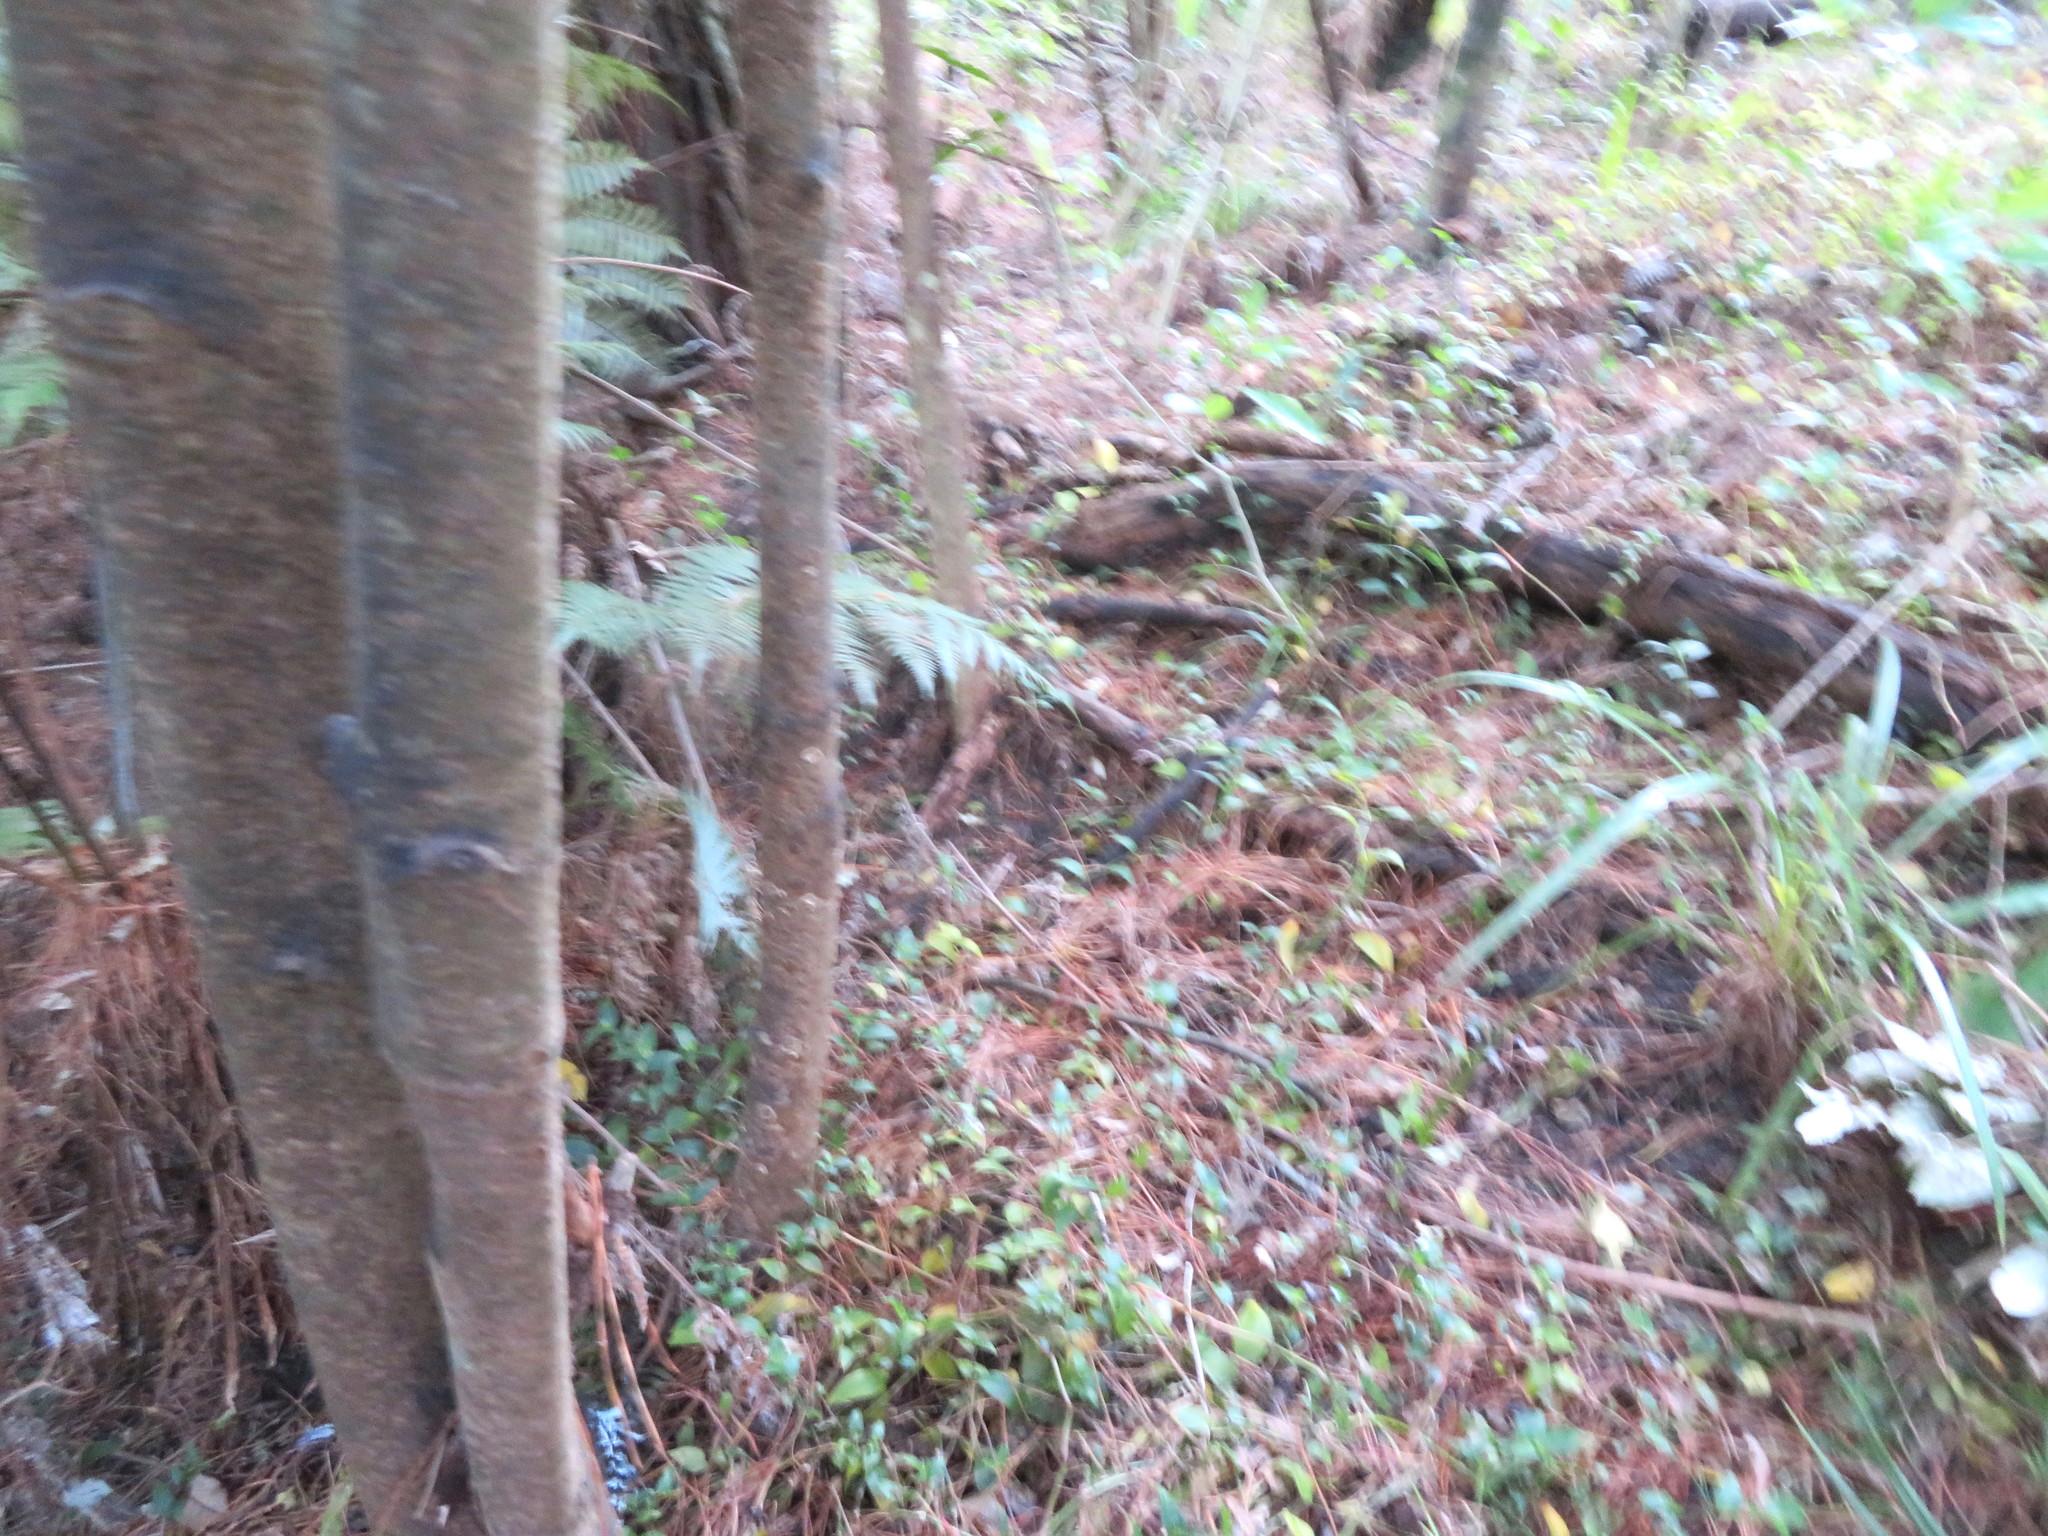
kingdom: Plantae
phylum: Tracheophyta
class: Liliopsida
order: Commelinales
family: Commelinaceae
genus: Tradescantia
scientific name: Tradescantia fluminensis
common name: Wandering-jew
